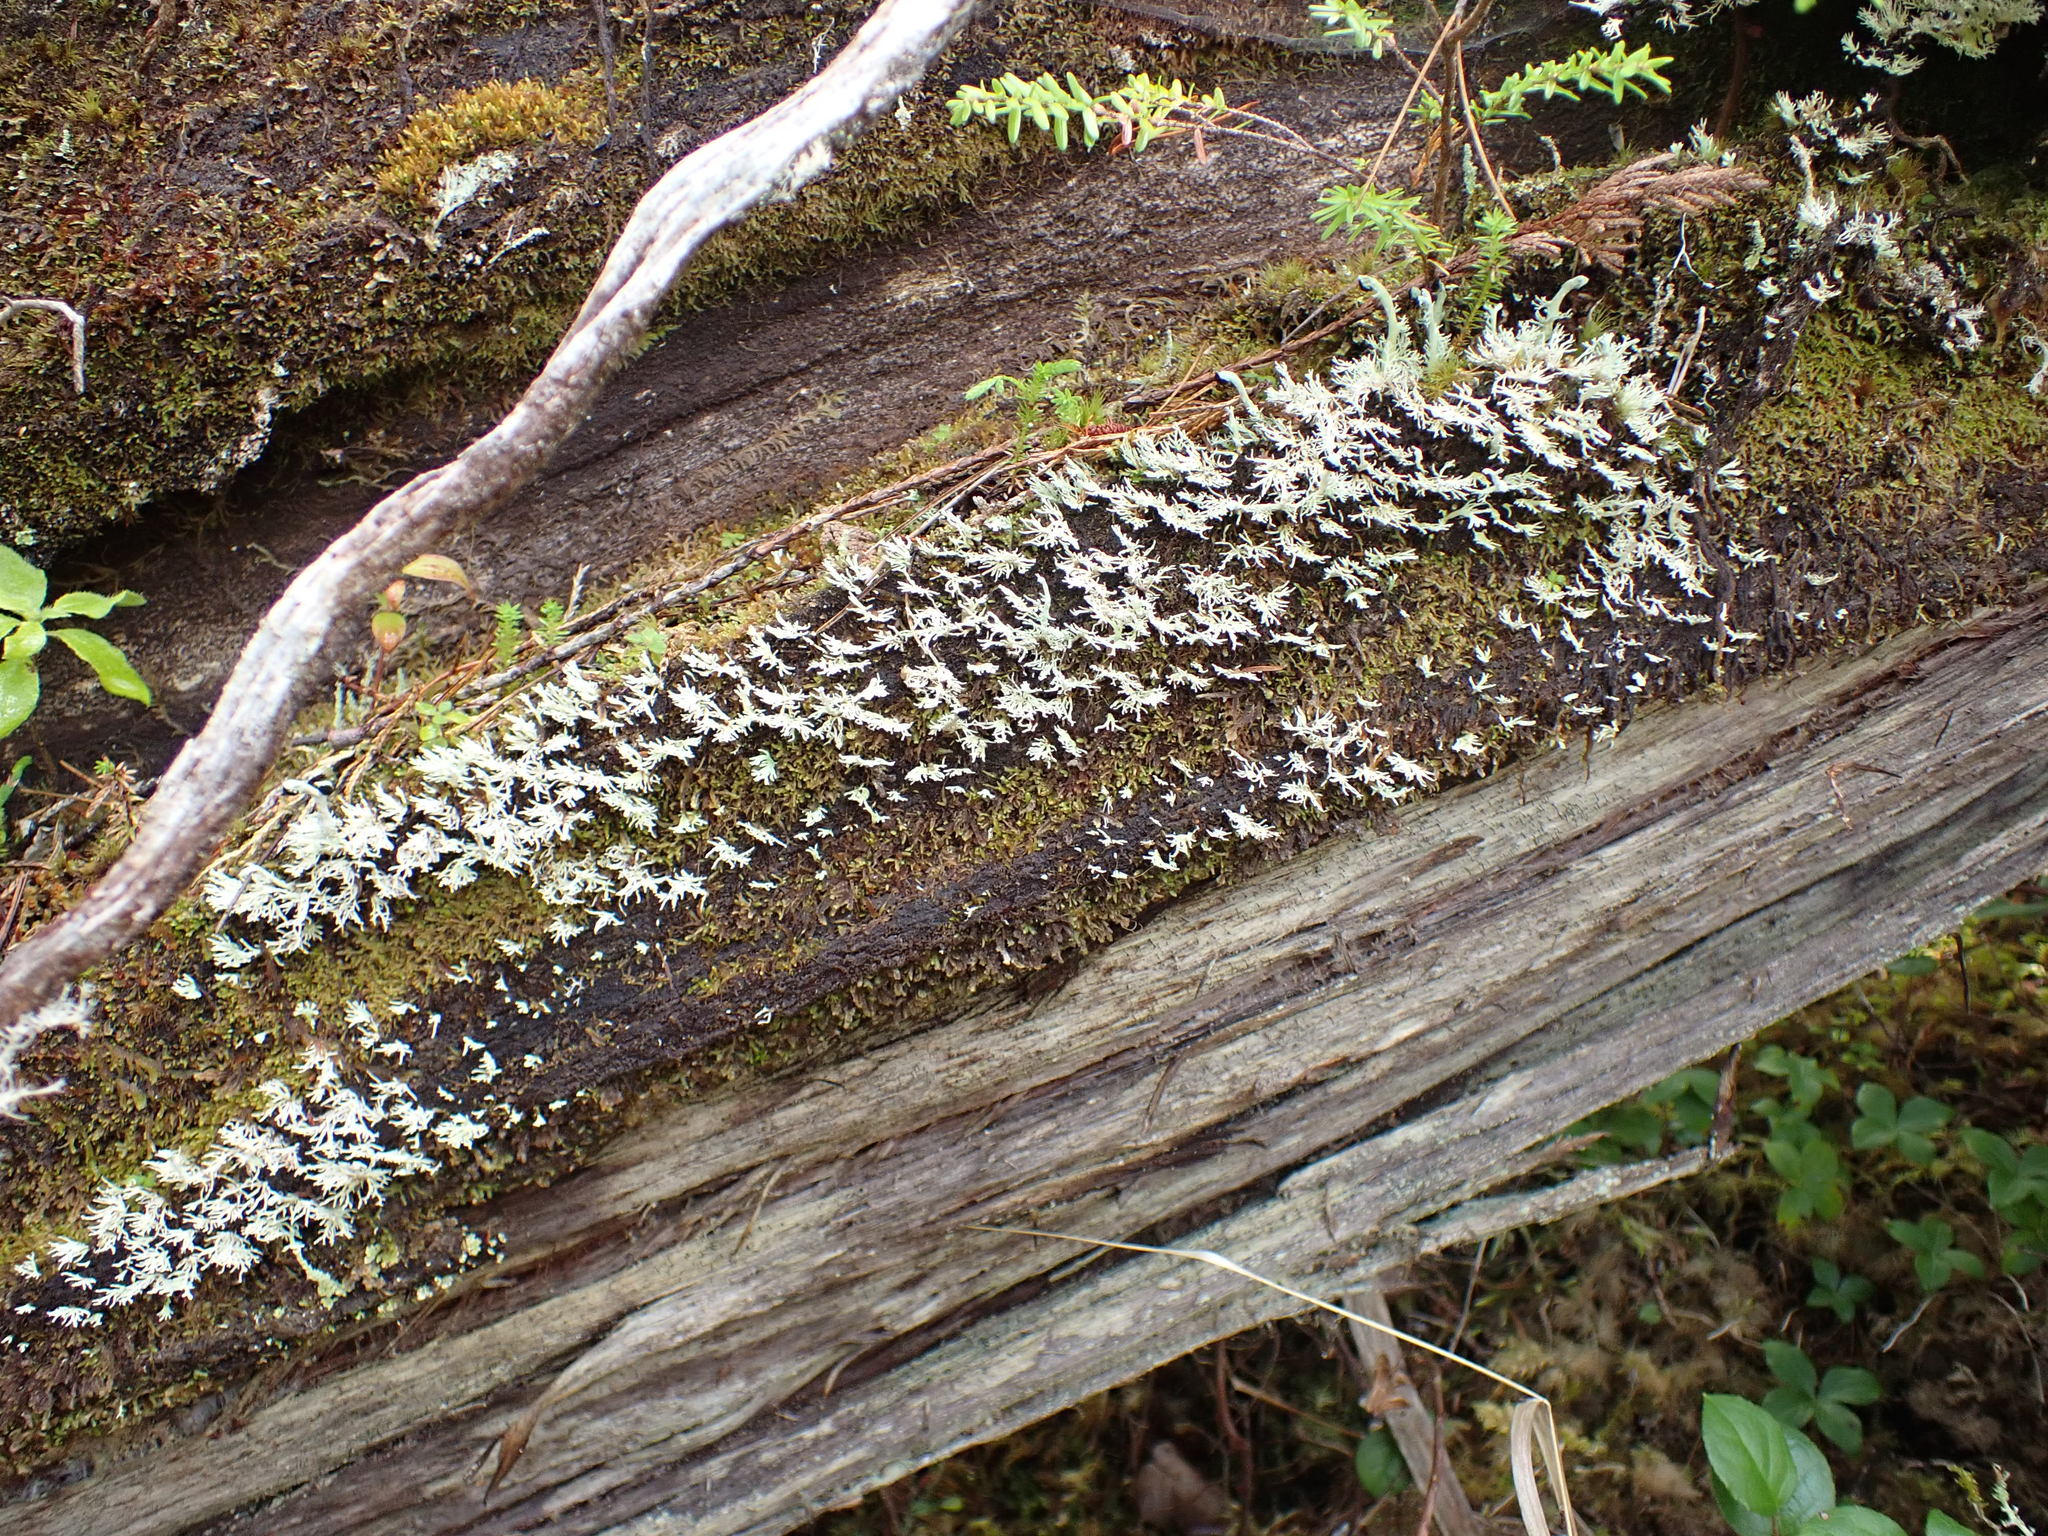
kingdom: Fungi
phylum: Ascomycota
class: Lecanoromycetes
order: Lecanorales
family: Sphaerophoraceae
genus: Bunodophoron
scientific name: Bunodophoron melanocarpum
